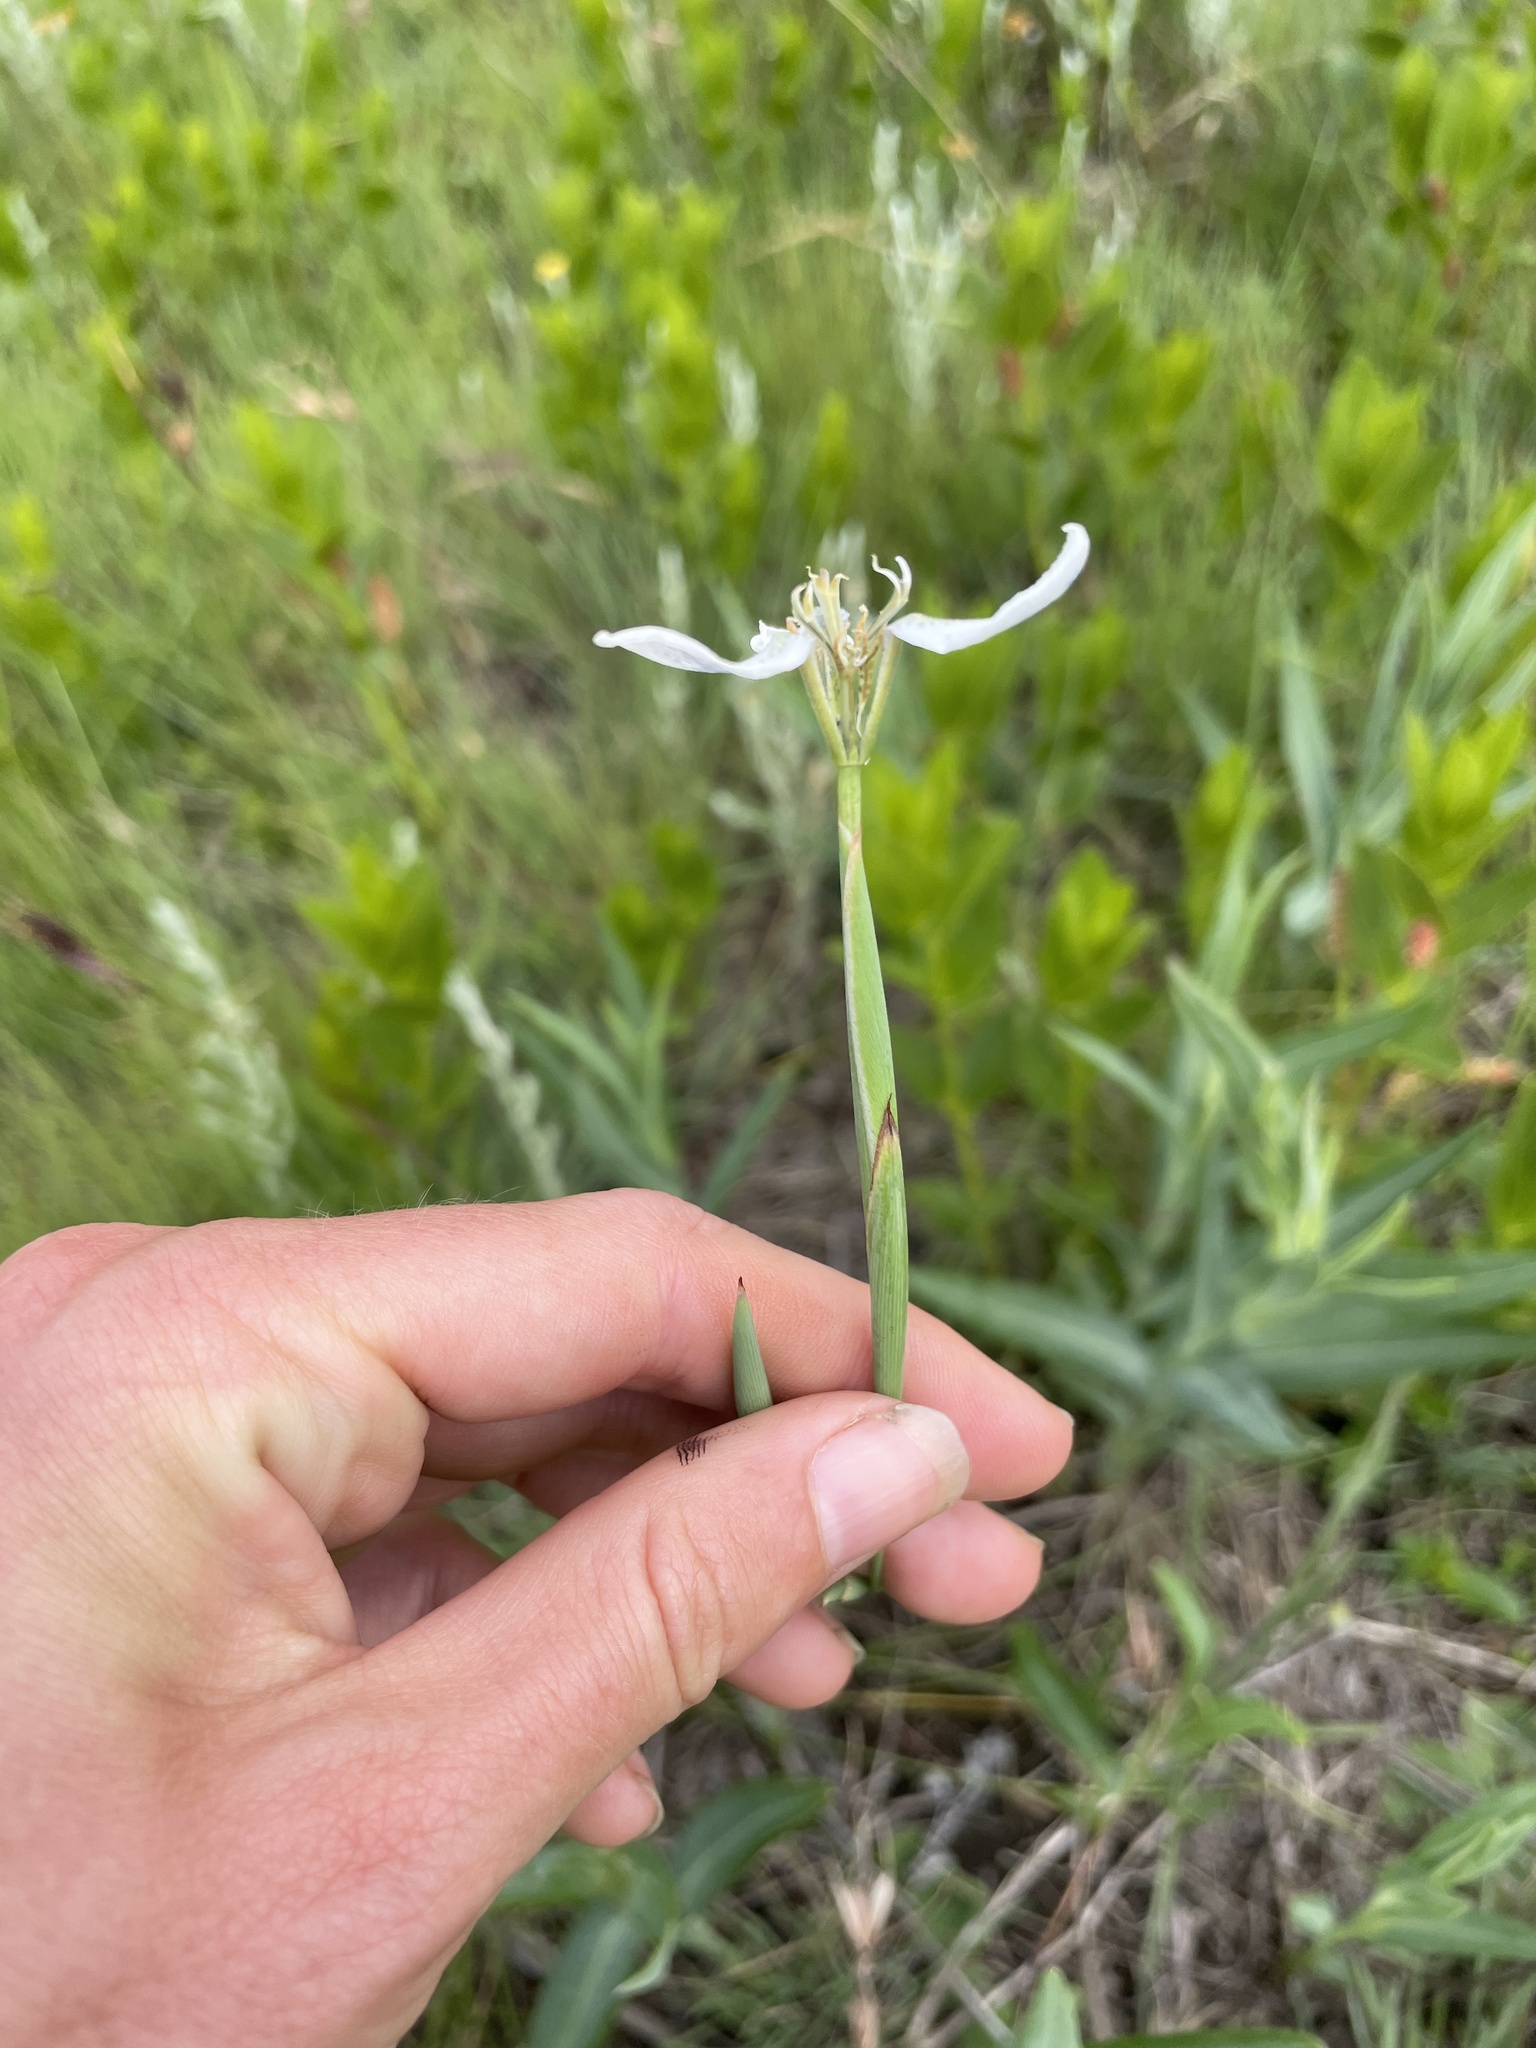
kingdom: Plantae
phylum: Tracheophyta
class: Liliopsida
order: Asparagales
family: Iridaceae
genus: Moraea
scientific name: Moraea brevistyla
